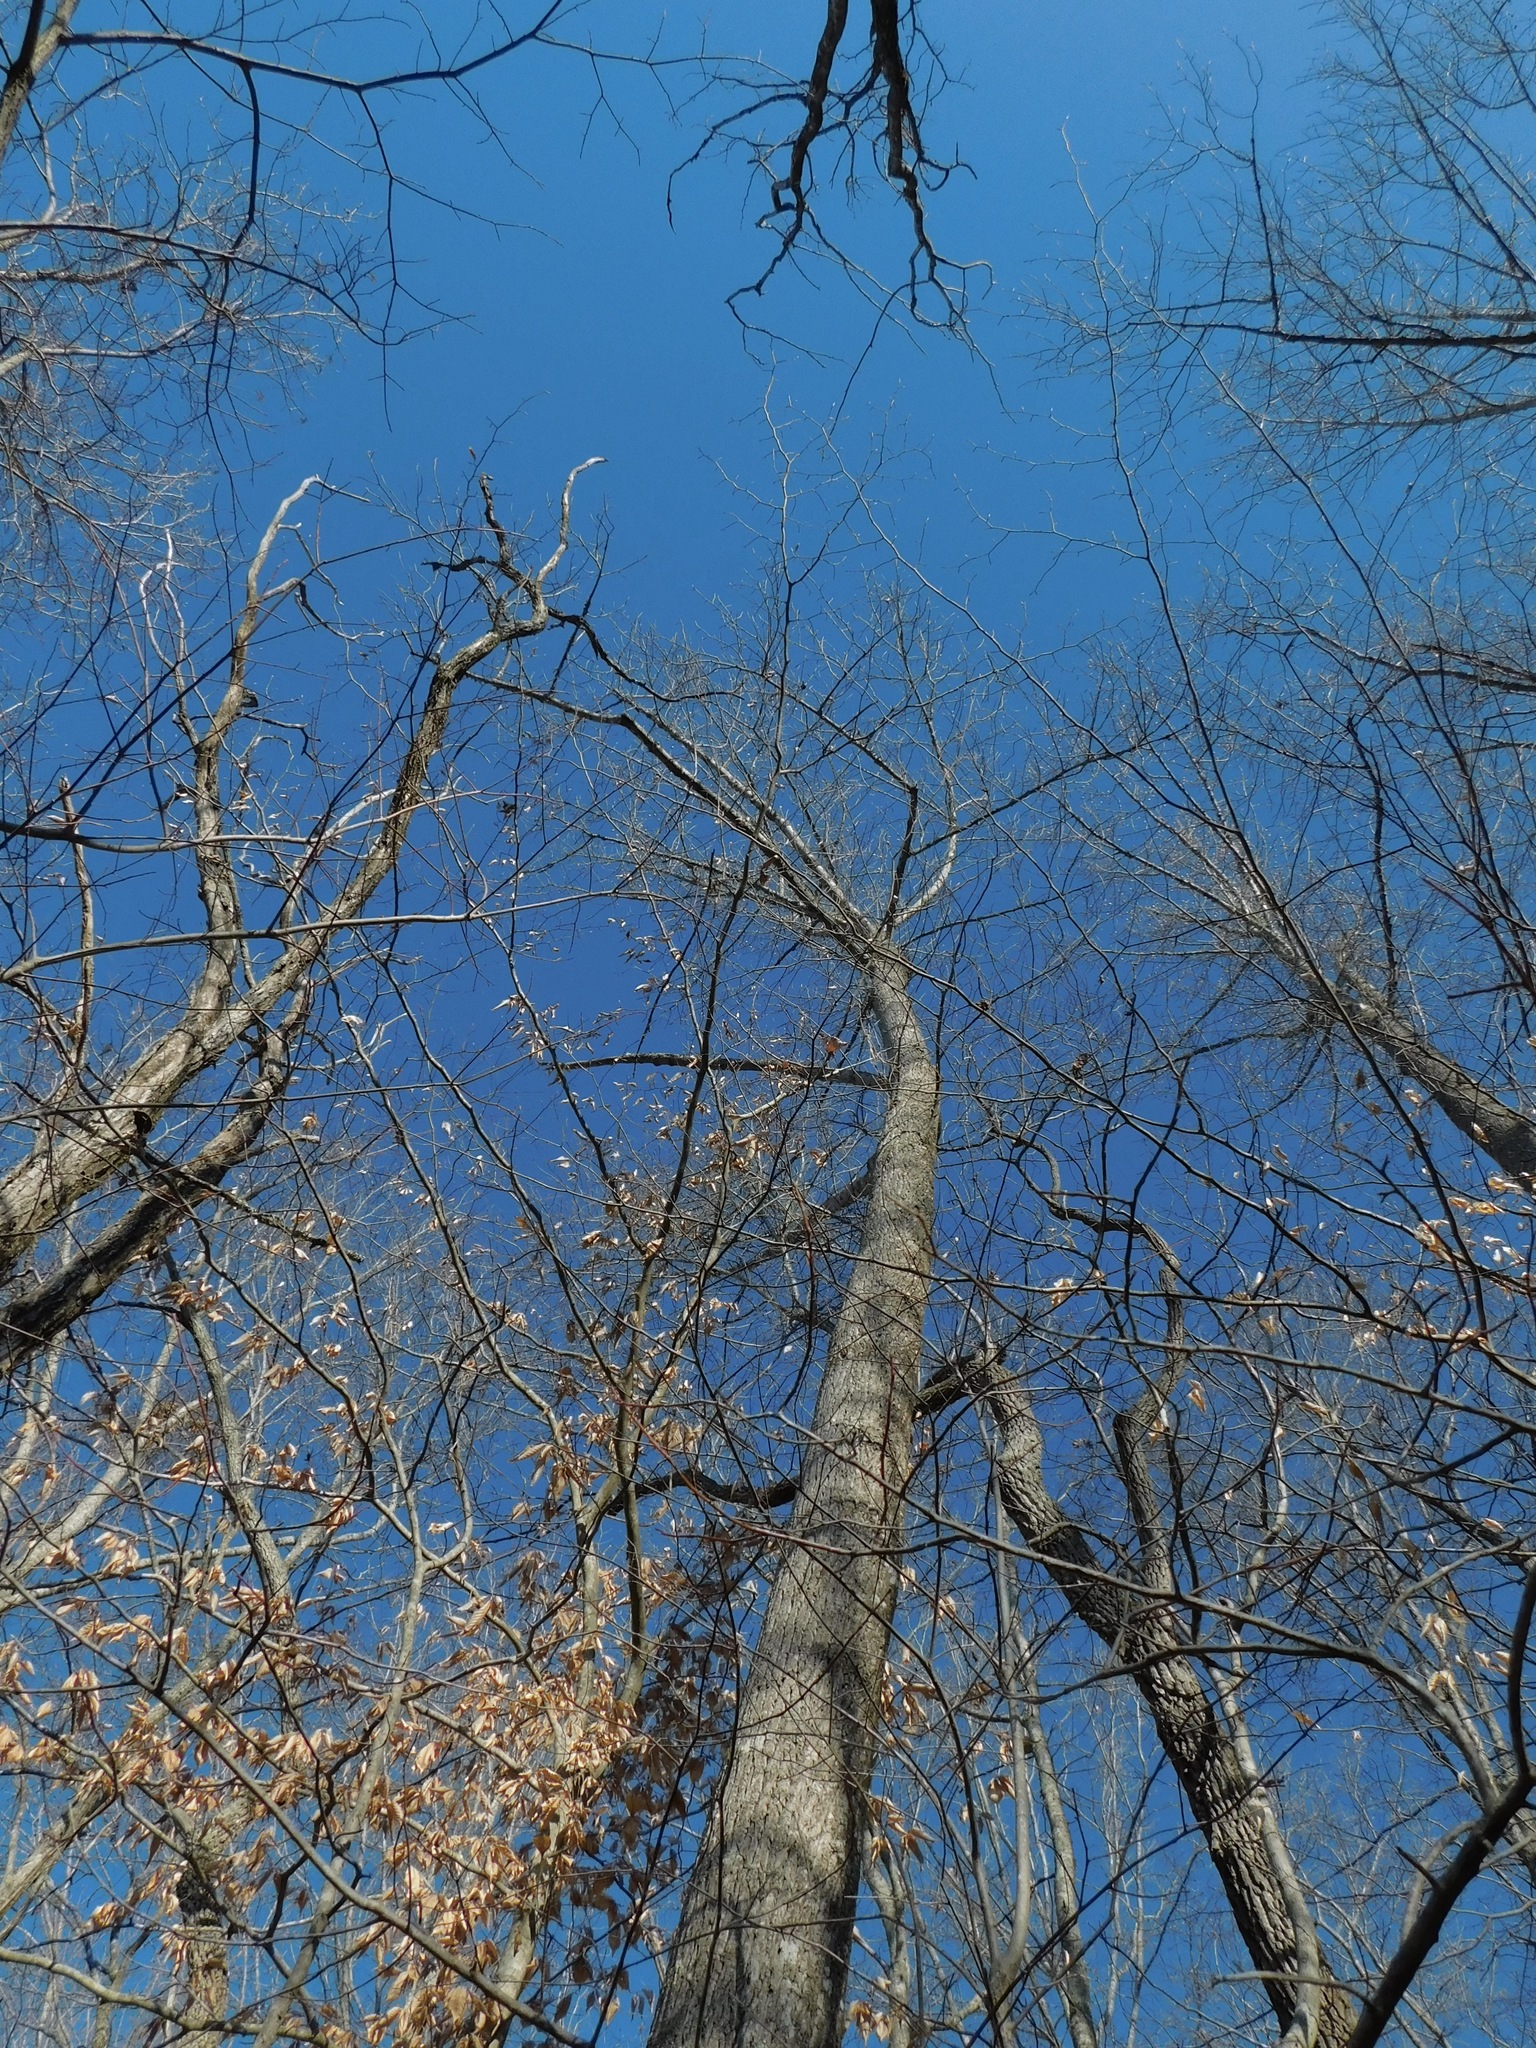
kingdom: Plantae
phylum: Tracheophyta
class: Magnoliopsida
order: Magnoliales
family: Magnoliaceae
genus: Liriodendron
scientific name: Liriodendron tulipifera
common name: Tulip tree
